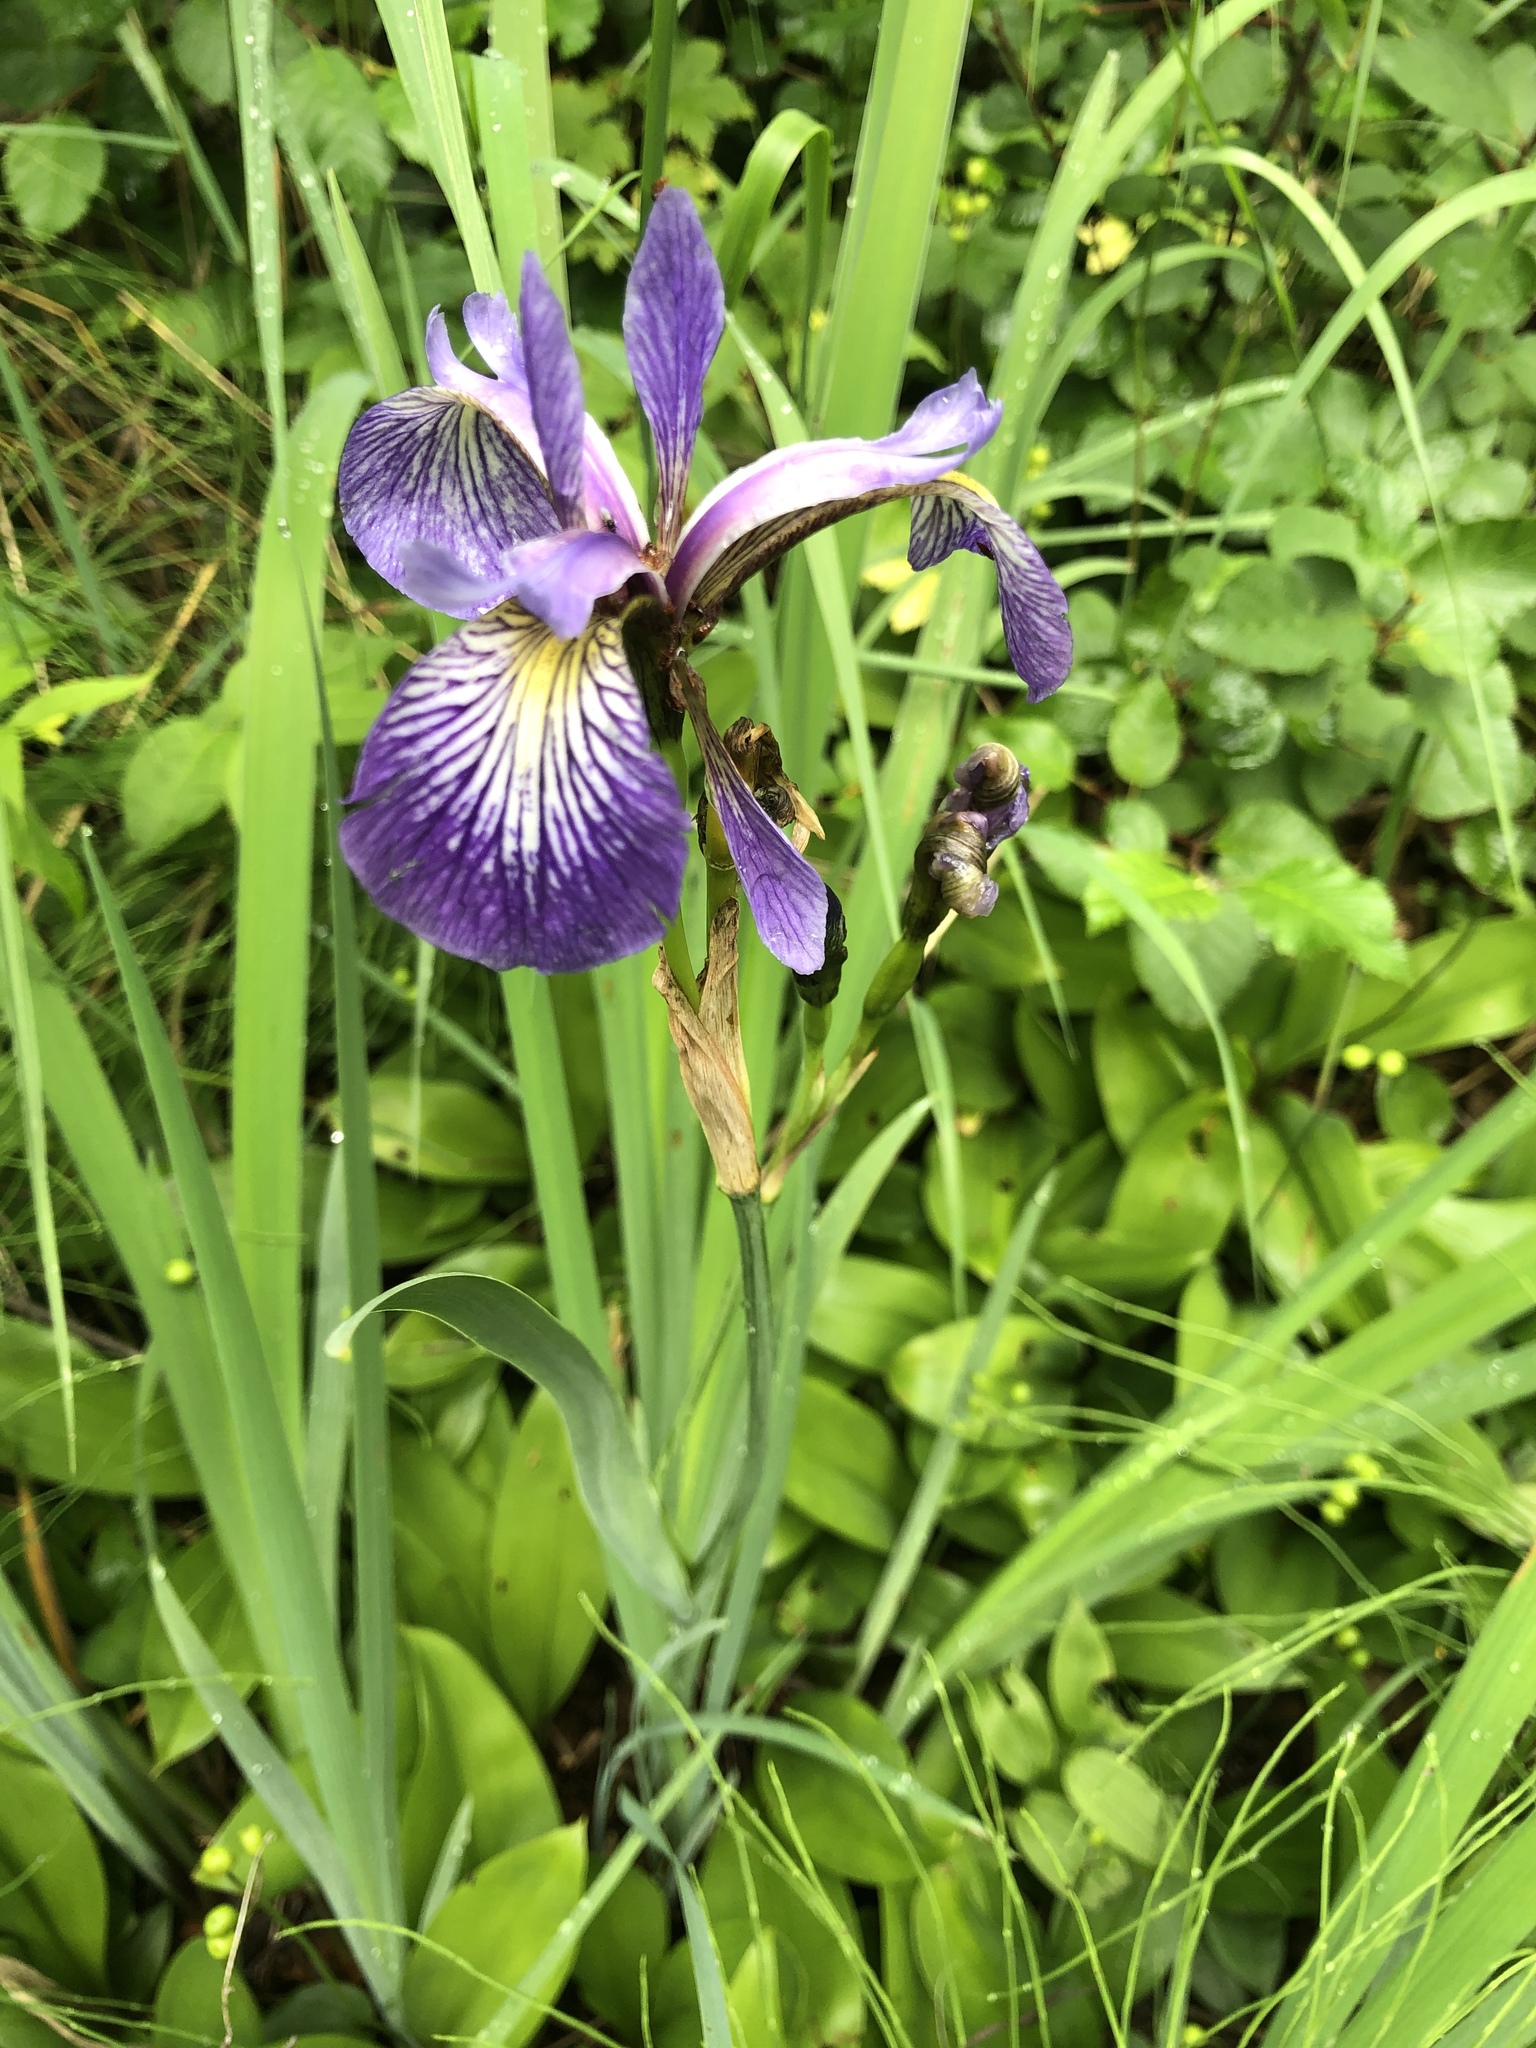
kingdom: Plantae
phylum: Tracheophyta
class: Liliopsida
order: Asparagales
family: Iridaceae
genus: Iris
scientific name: Iris versicolor
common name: Purple iris
